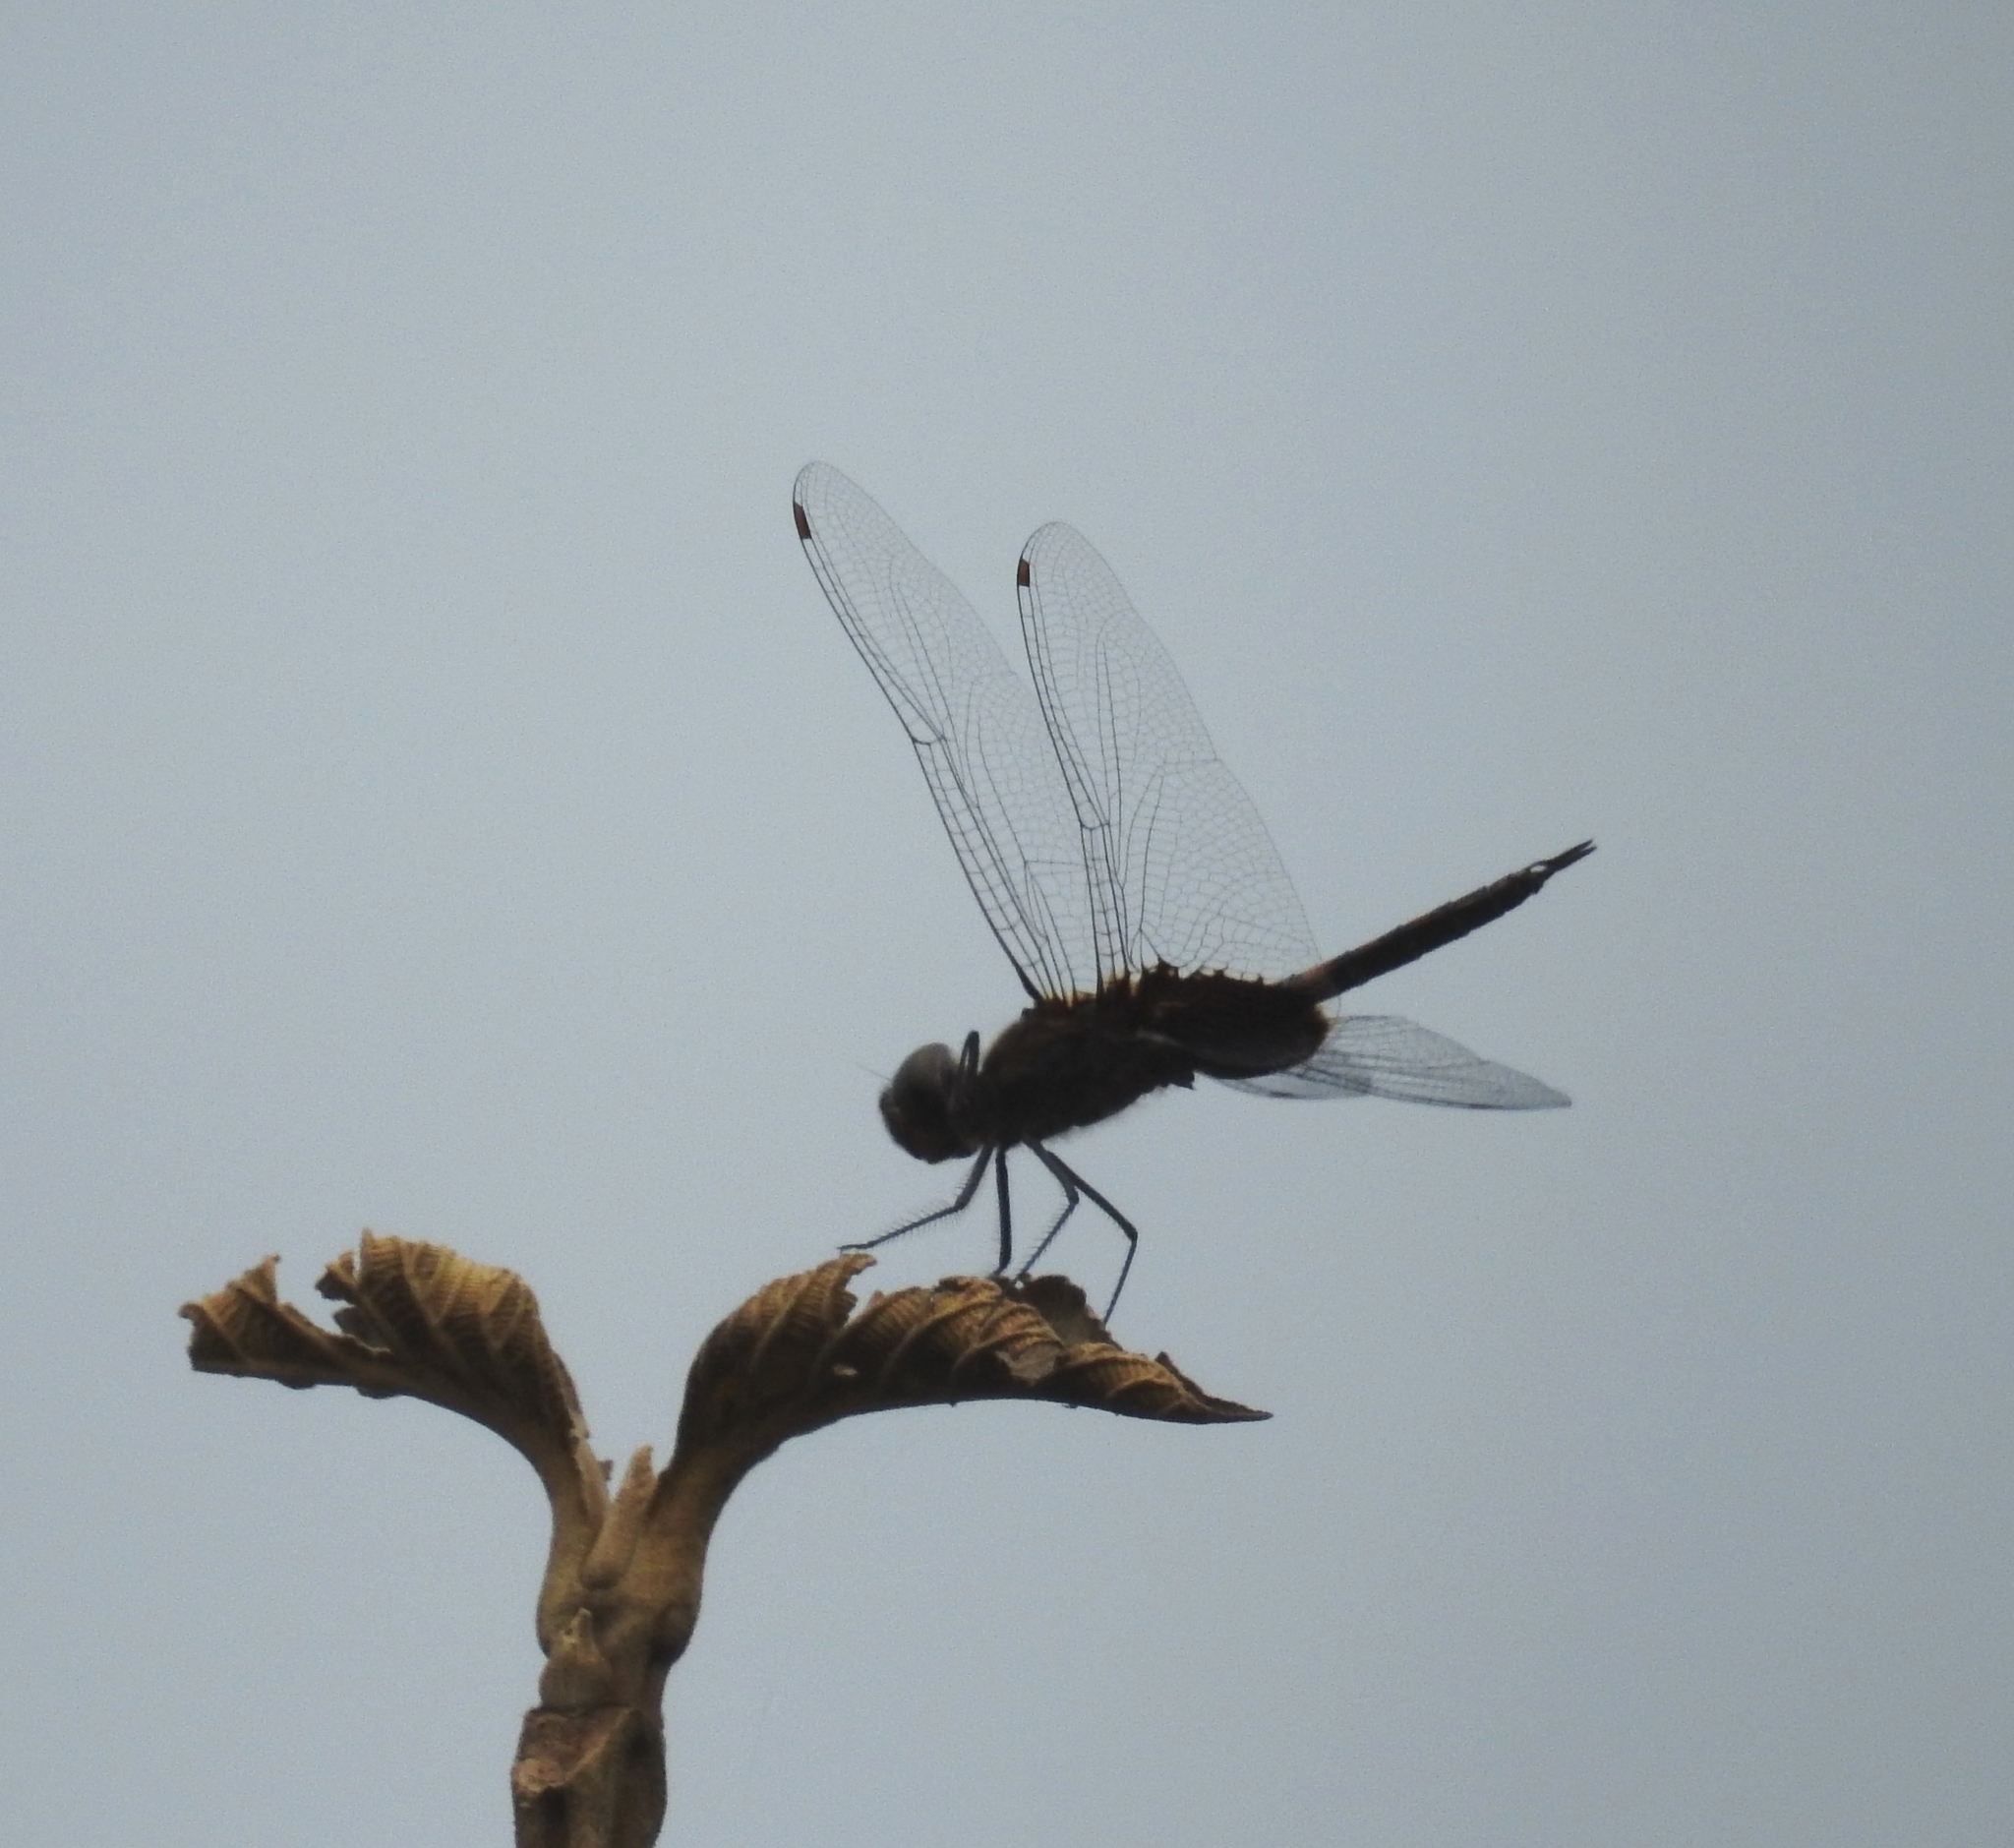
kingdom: Animalia
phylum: Arthropoda
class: Insecta
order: Odonata
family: Libellulidae
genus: Tramea
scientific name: Tramea limbata
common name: Ferruginous glider
